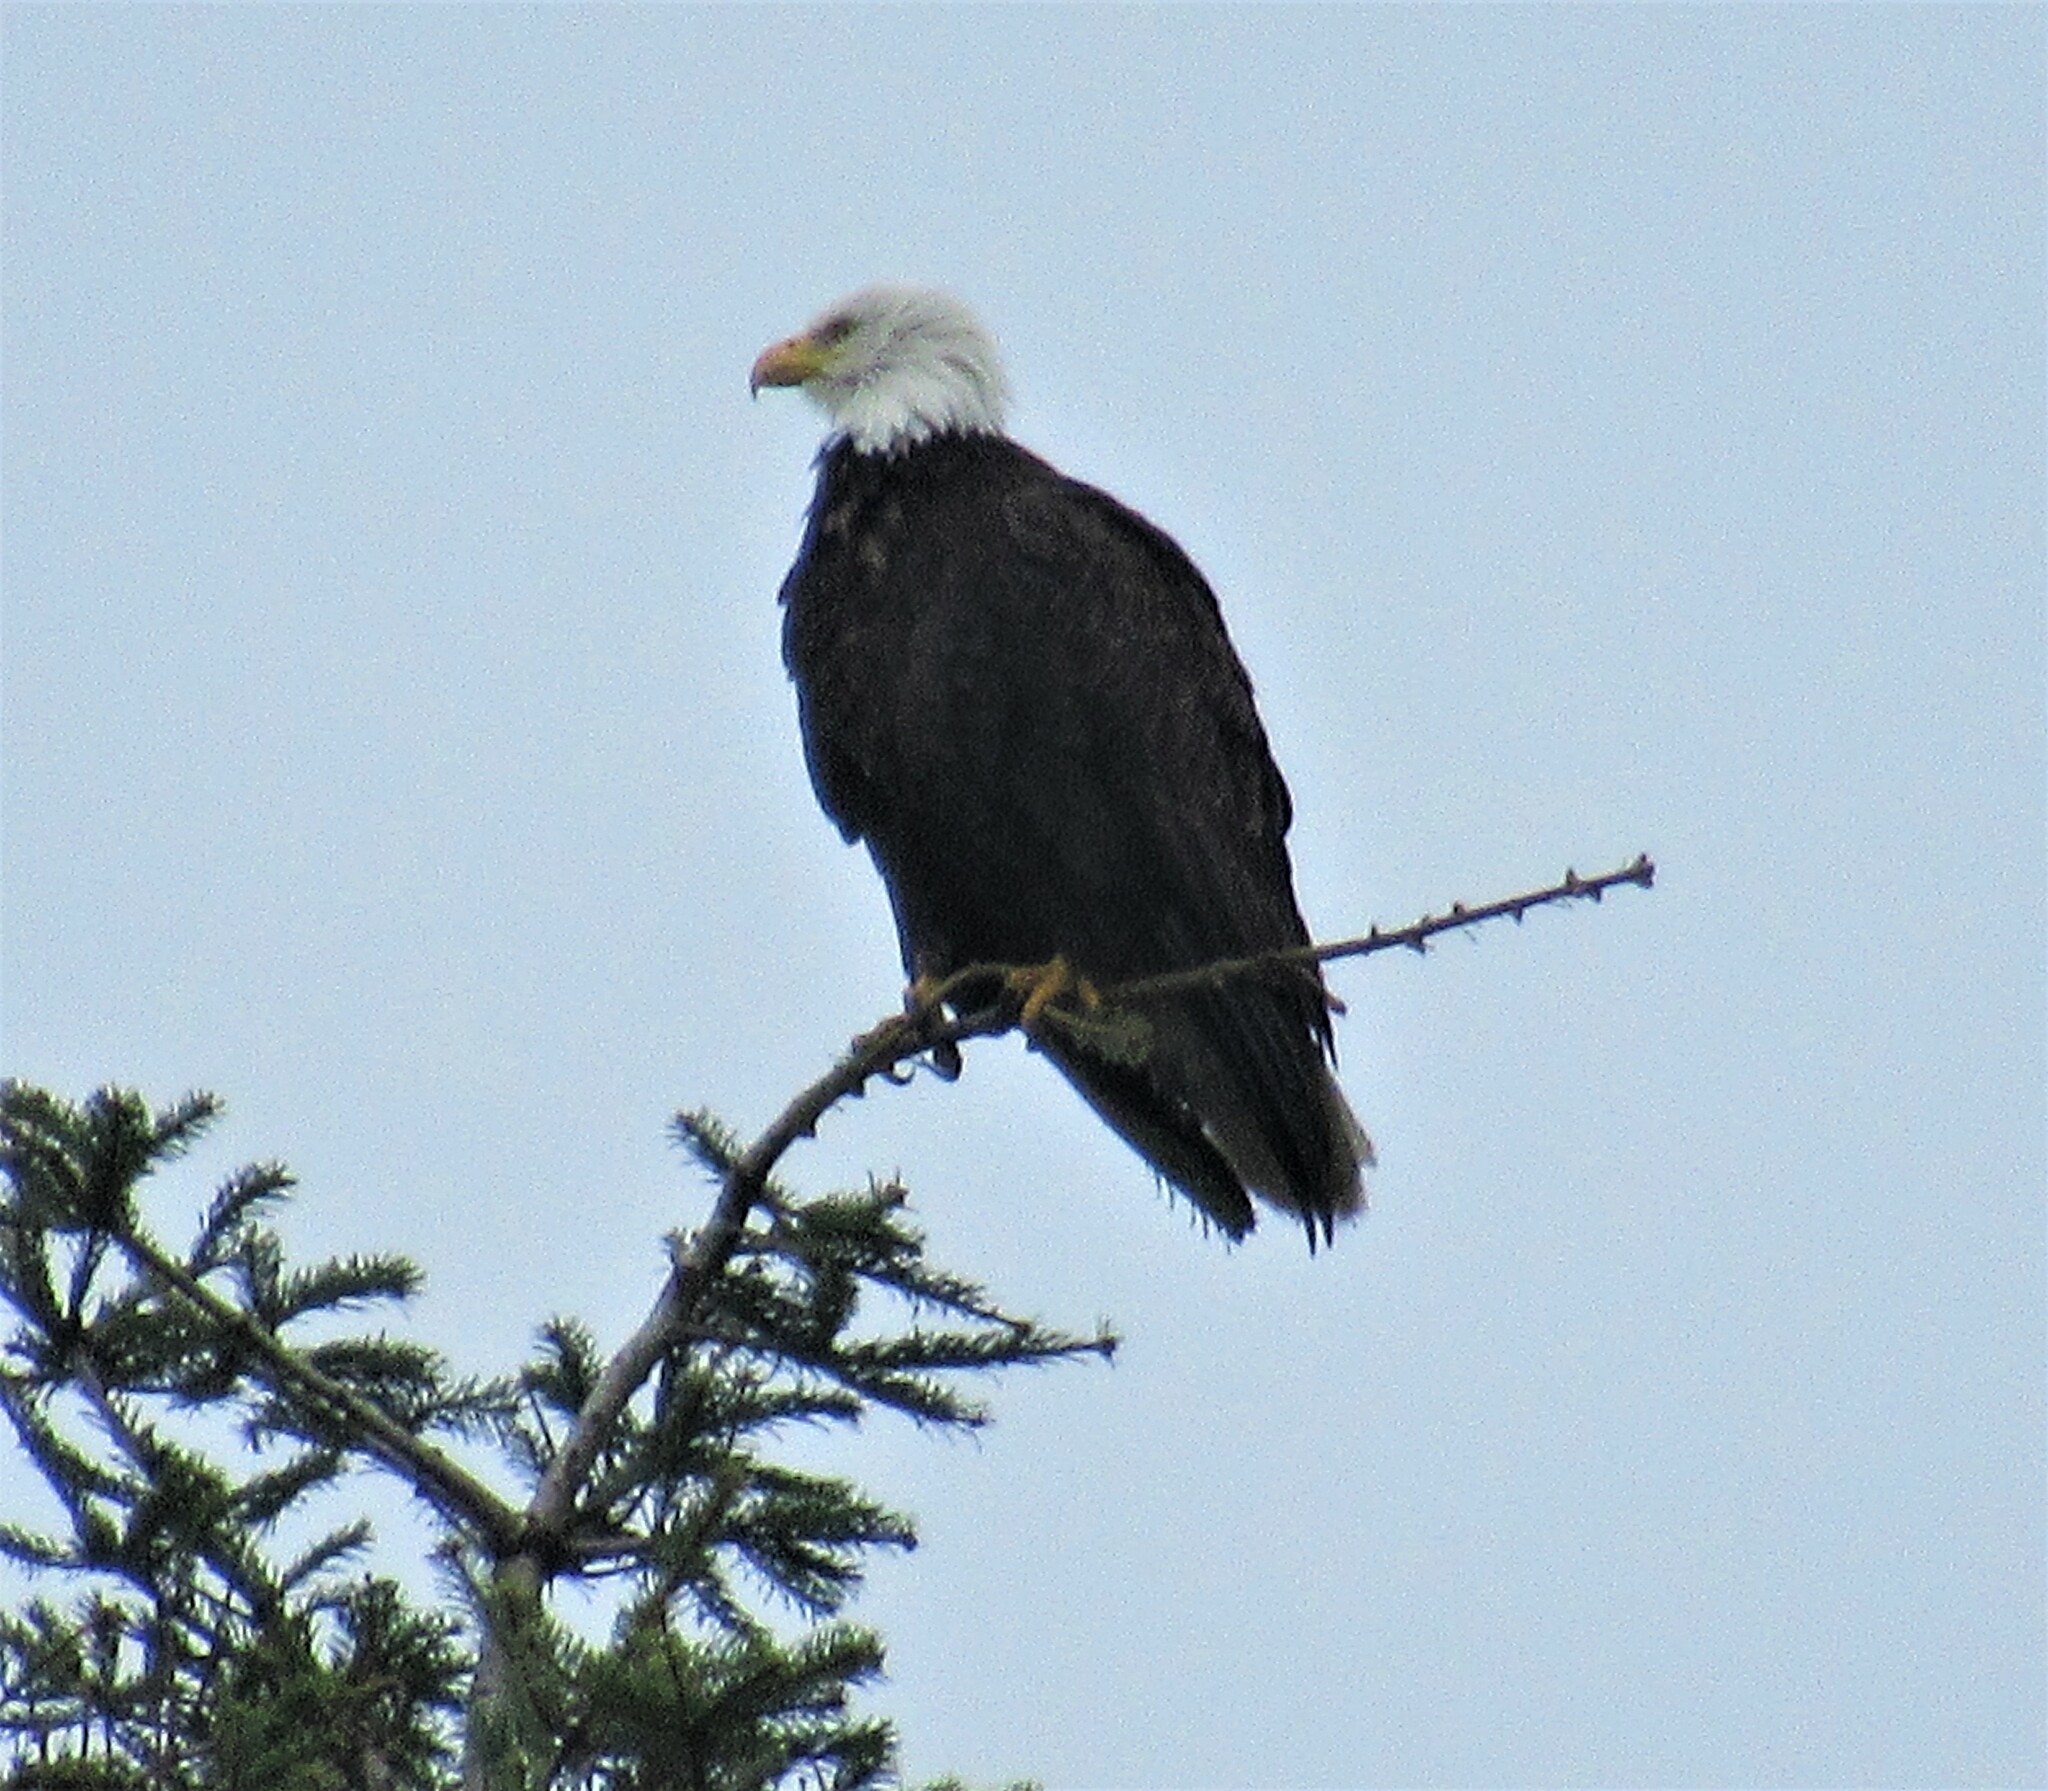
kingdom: Animalia
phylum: Chordata
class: Aves
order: Accipitriformes
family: Accipitridae
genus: Haliaeetus
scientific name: Haliaeetus leucocephalus
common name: Bald eagle
